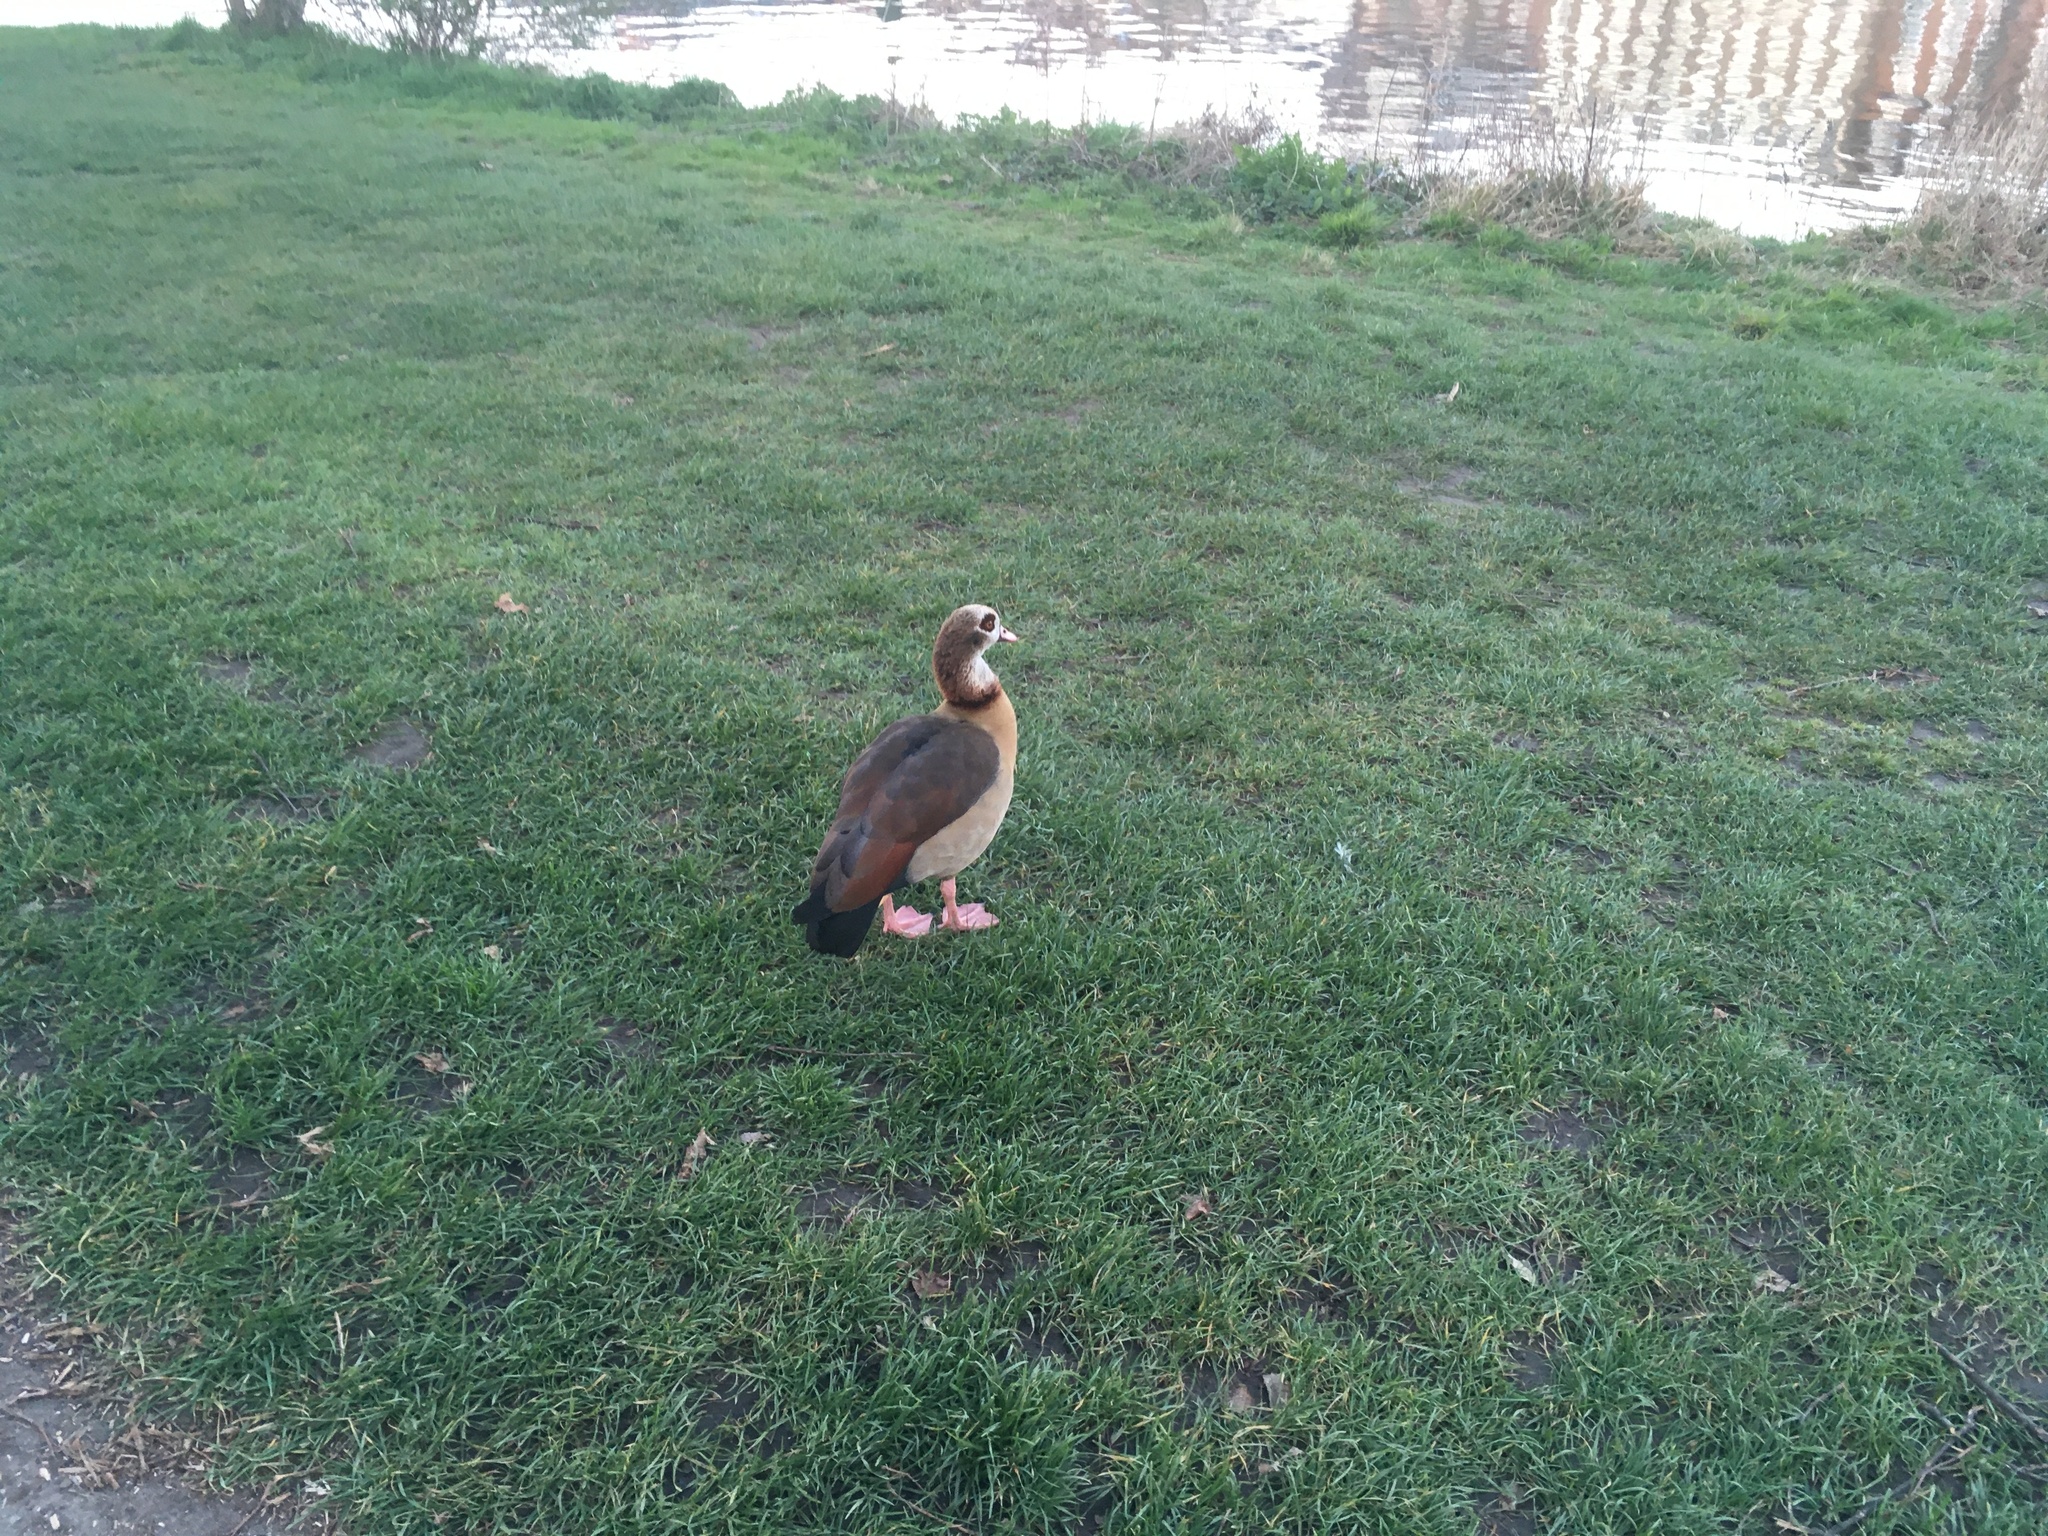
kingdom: Animalia
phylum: Chordata
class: Aves
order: Anseriformes
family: Anatidae
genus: Alopochen
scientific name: Alopochen aegyptiaca
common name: Egyptian goose
